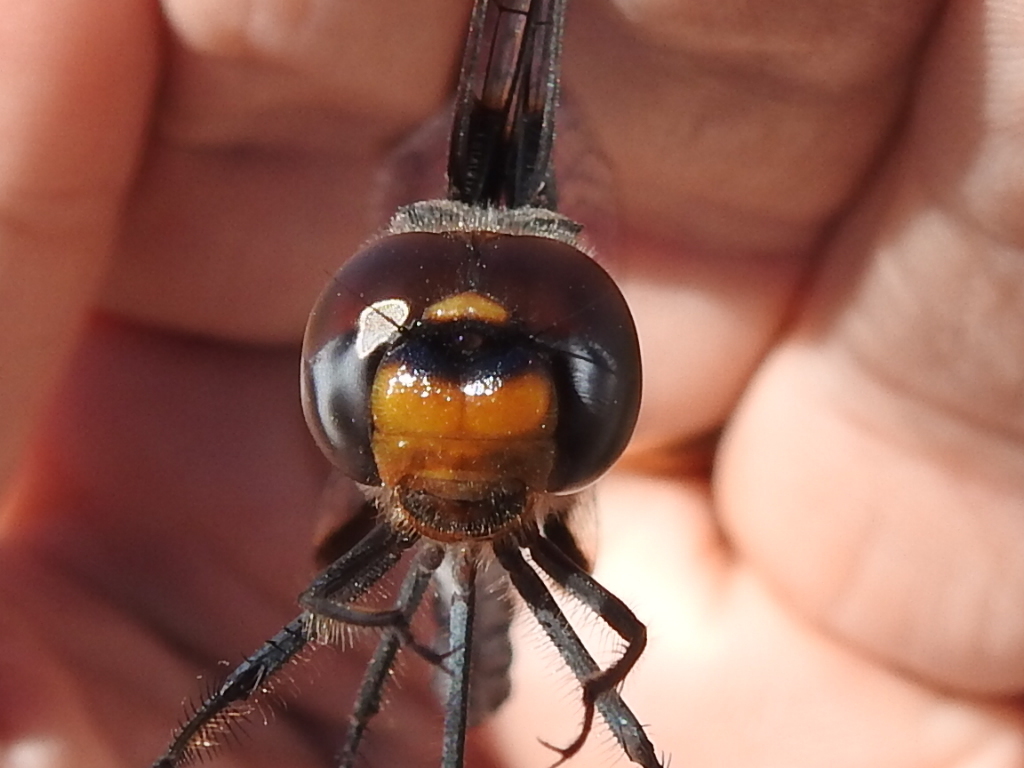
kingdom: Animalia
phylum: Arthropoda
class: Insecta
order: Odonata
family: Libellulidae
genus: Tramea
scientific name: Tramea lacerata
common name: Black saddlebags
